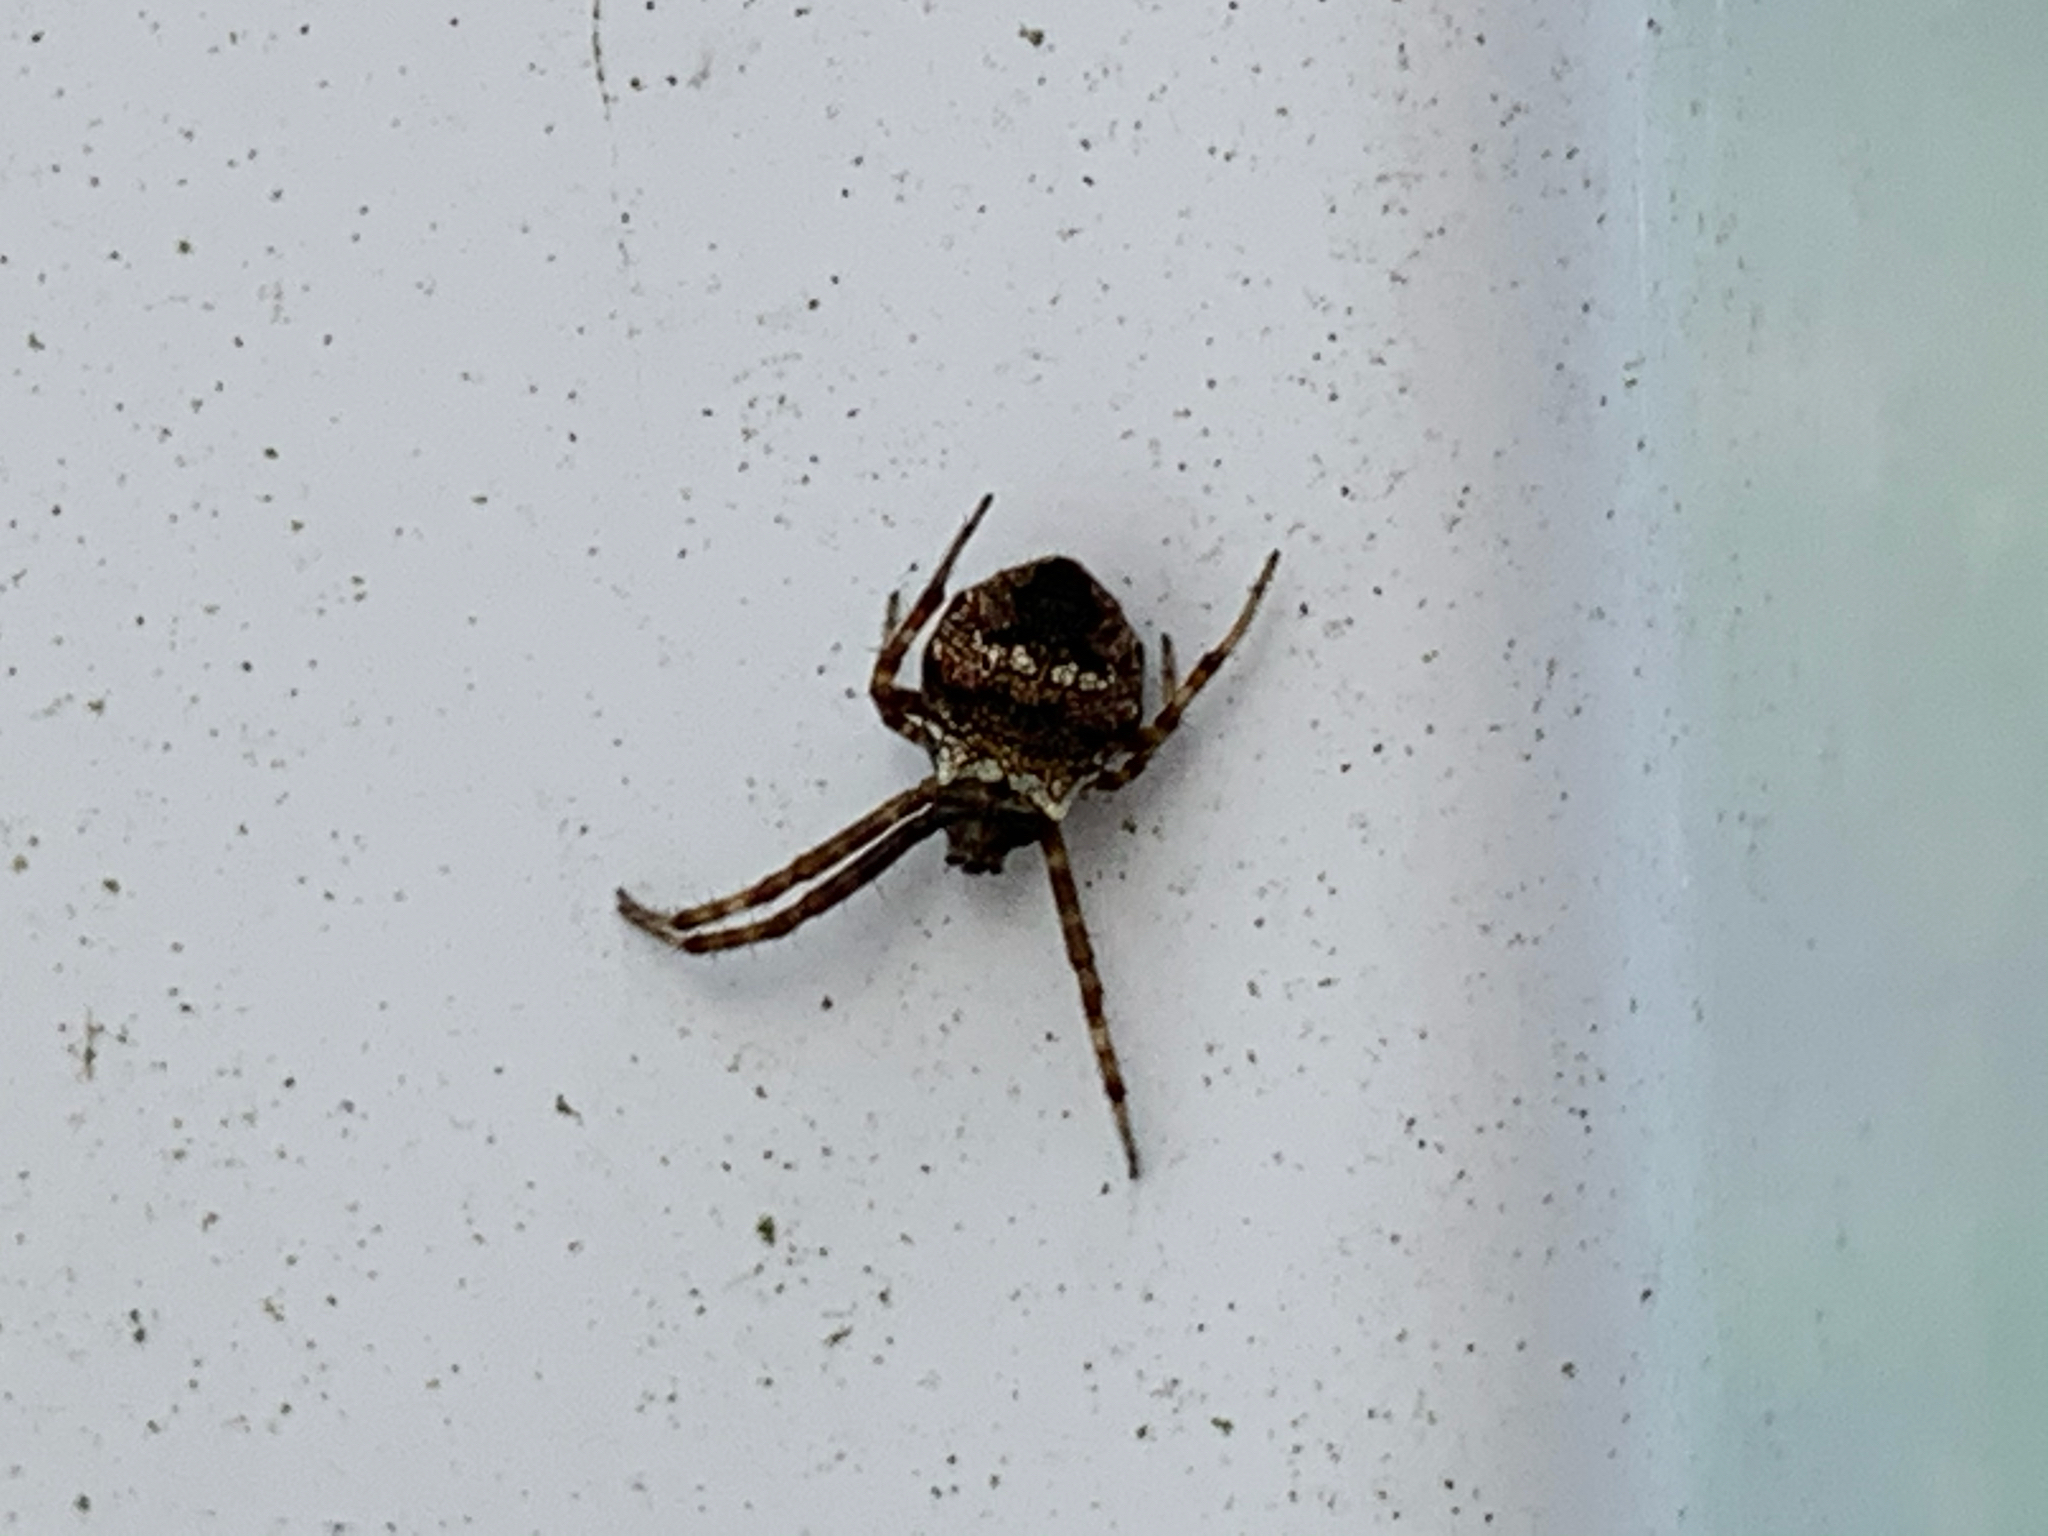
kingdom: Animalia
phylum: Arthropoda
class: Arachnida
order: Araneae
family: Araneidae
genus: Gea
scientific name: Gea heptagon
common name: Orb weavers
